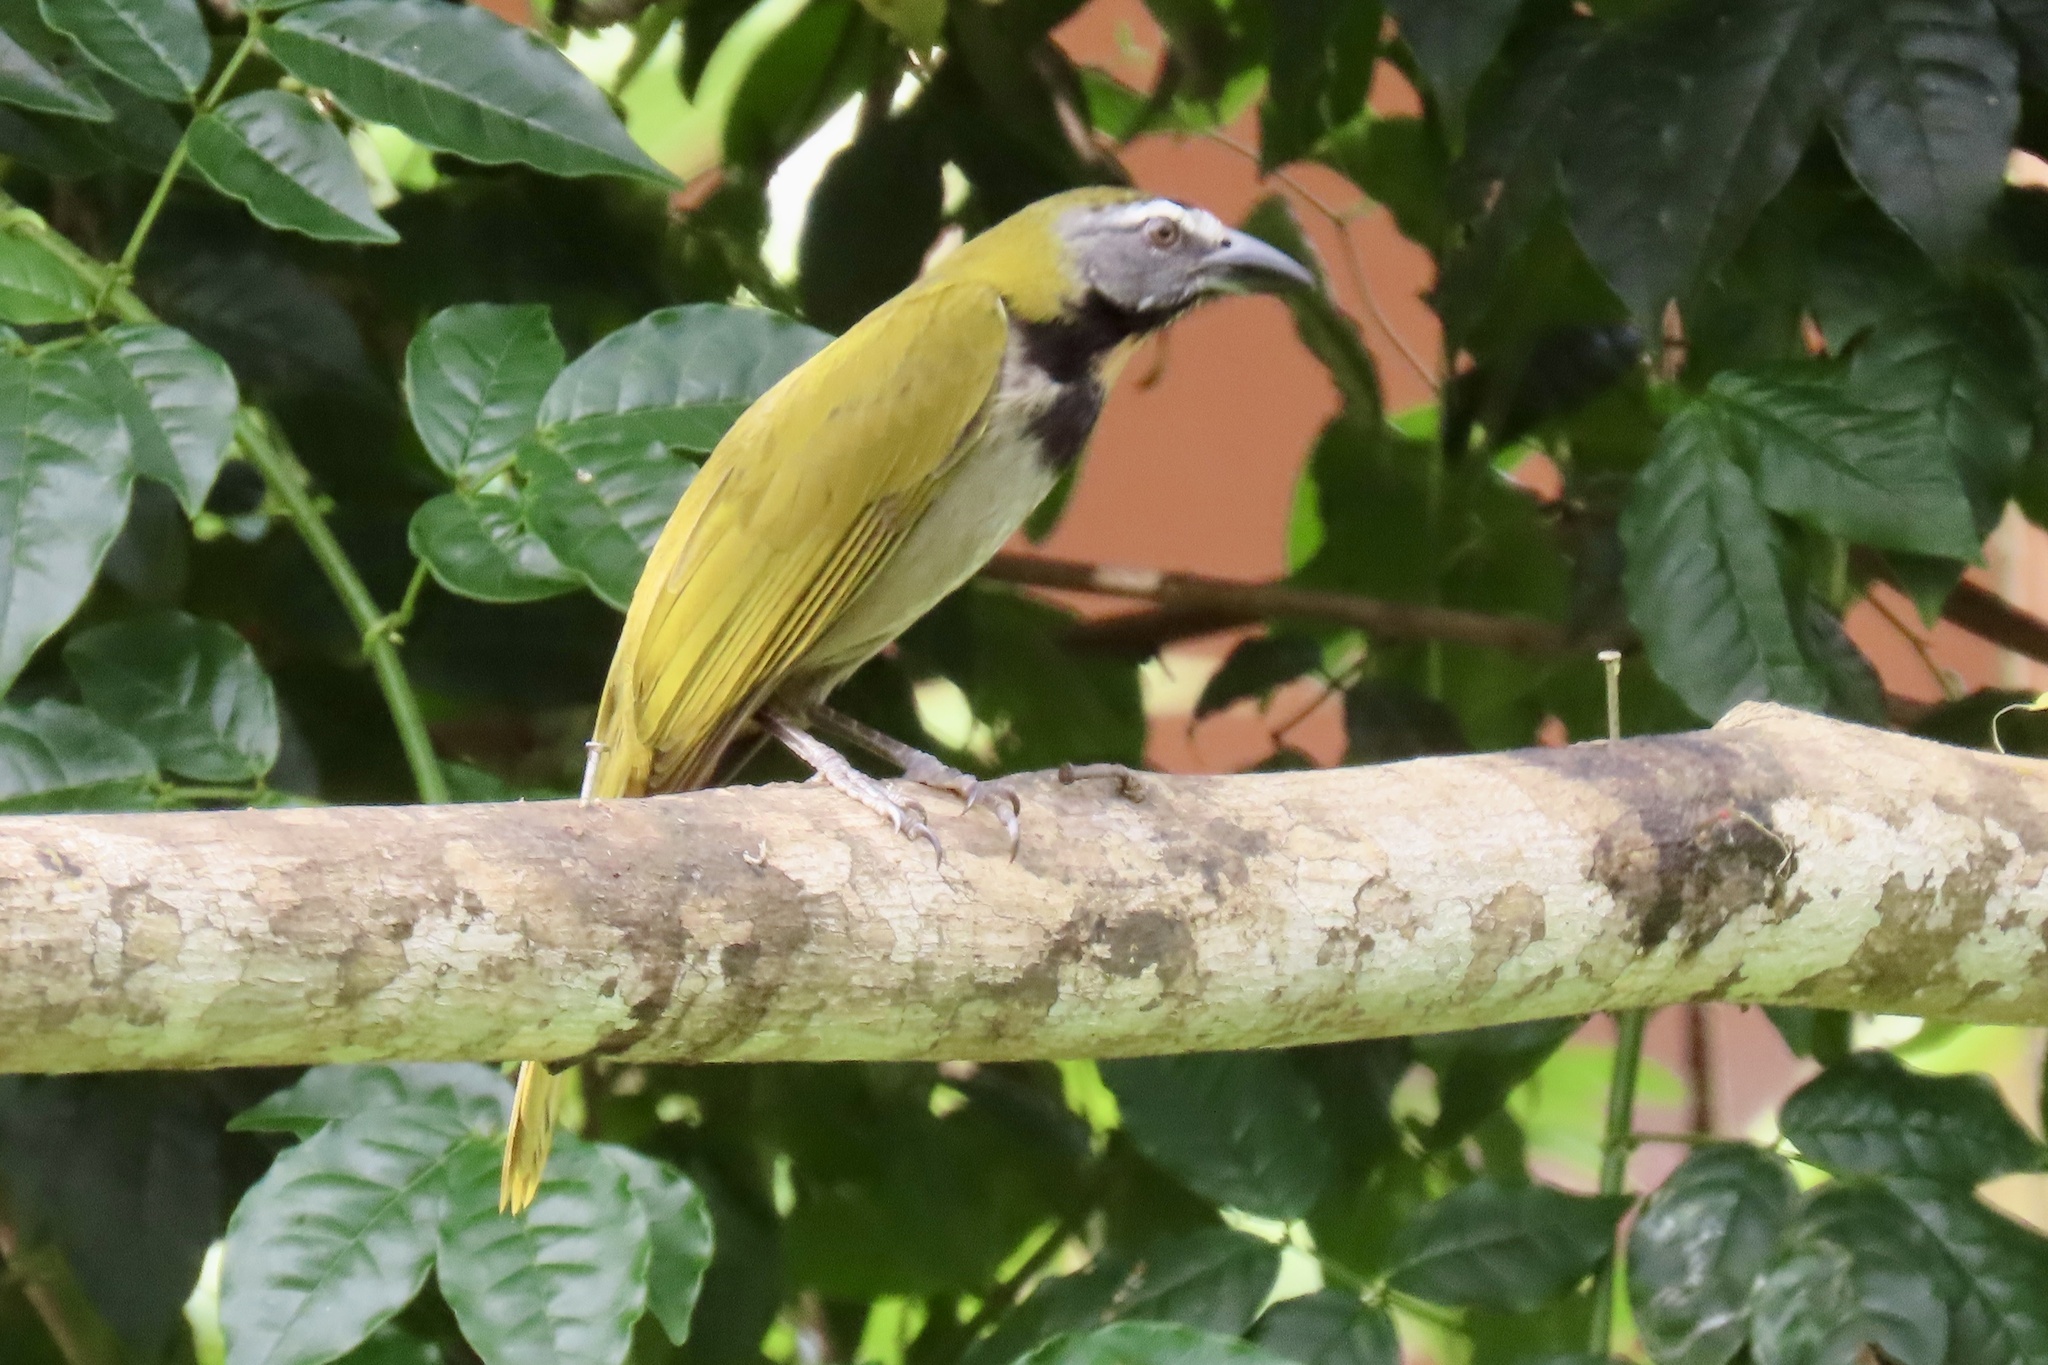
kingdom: Animalia
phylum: Chordata
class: Aves
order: Passeriformes
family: Thraupidae
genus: Saltator
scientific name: Saltator maximus
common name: Buff-throated saltator
